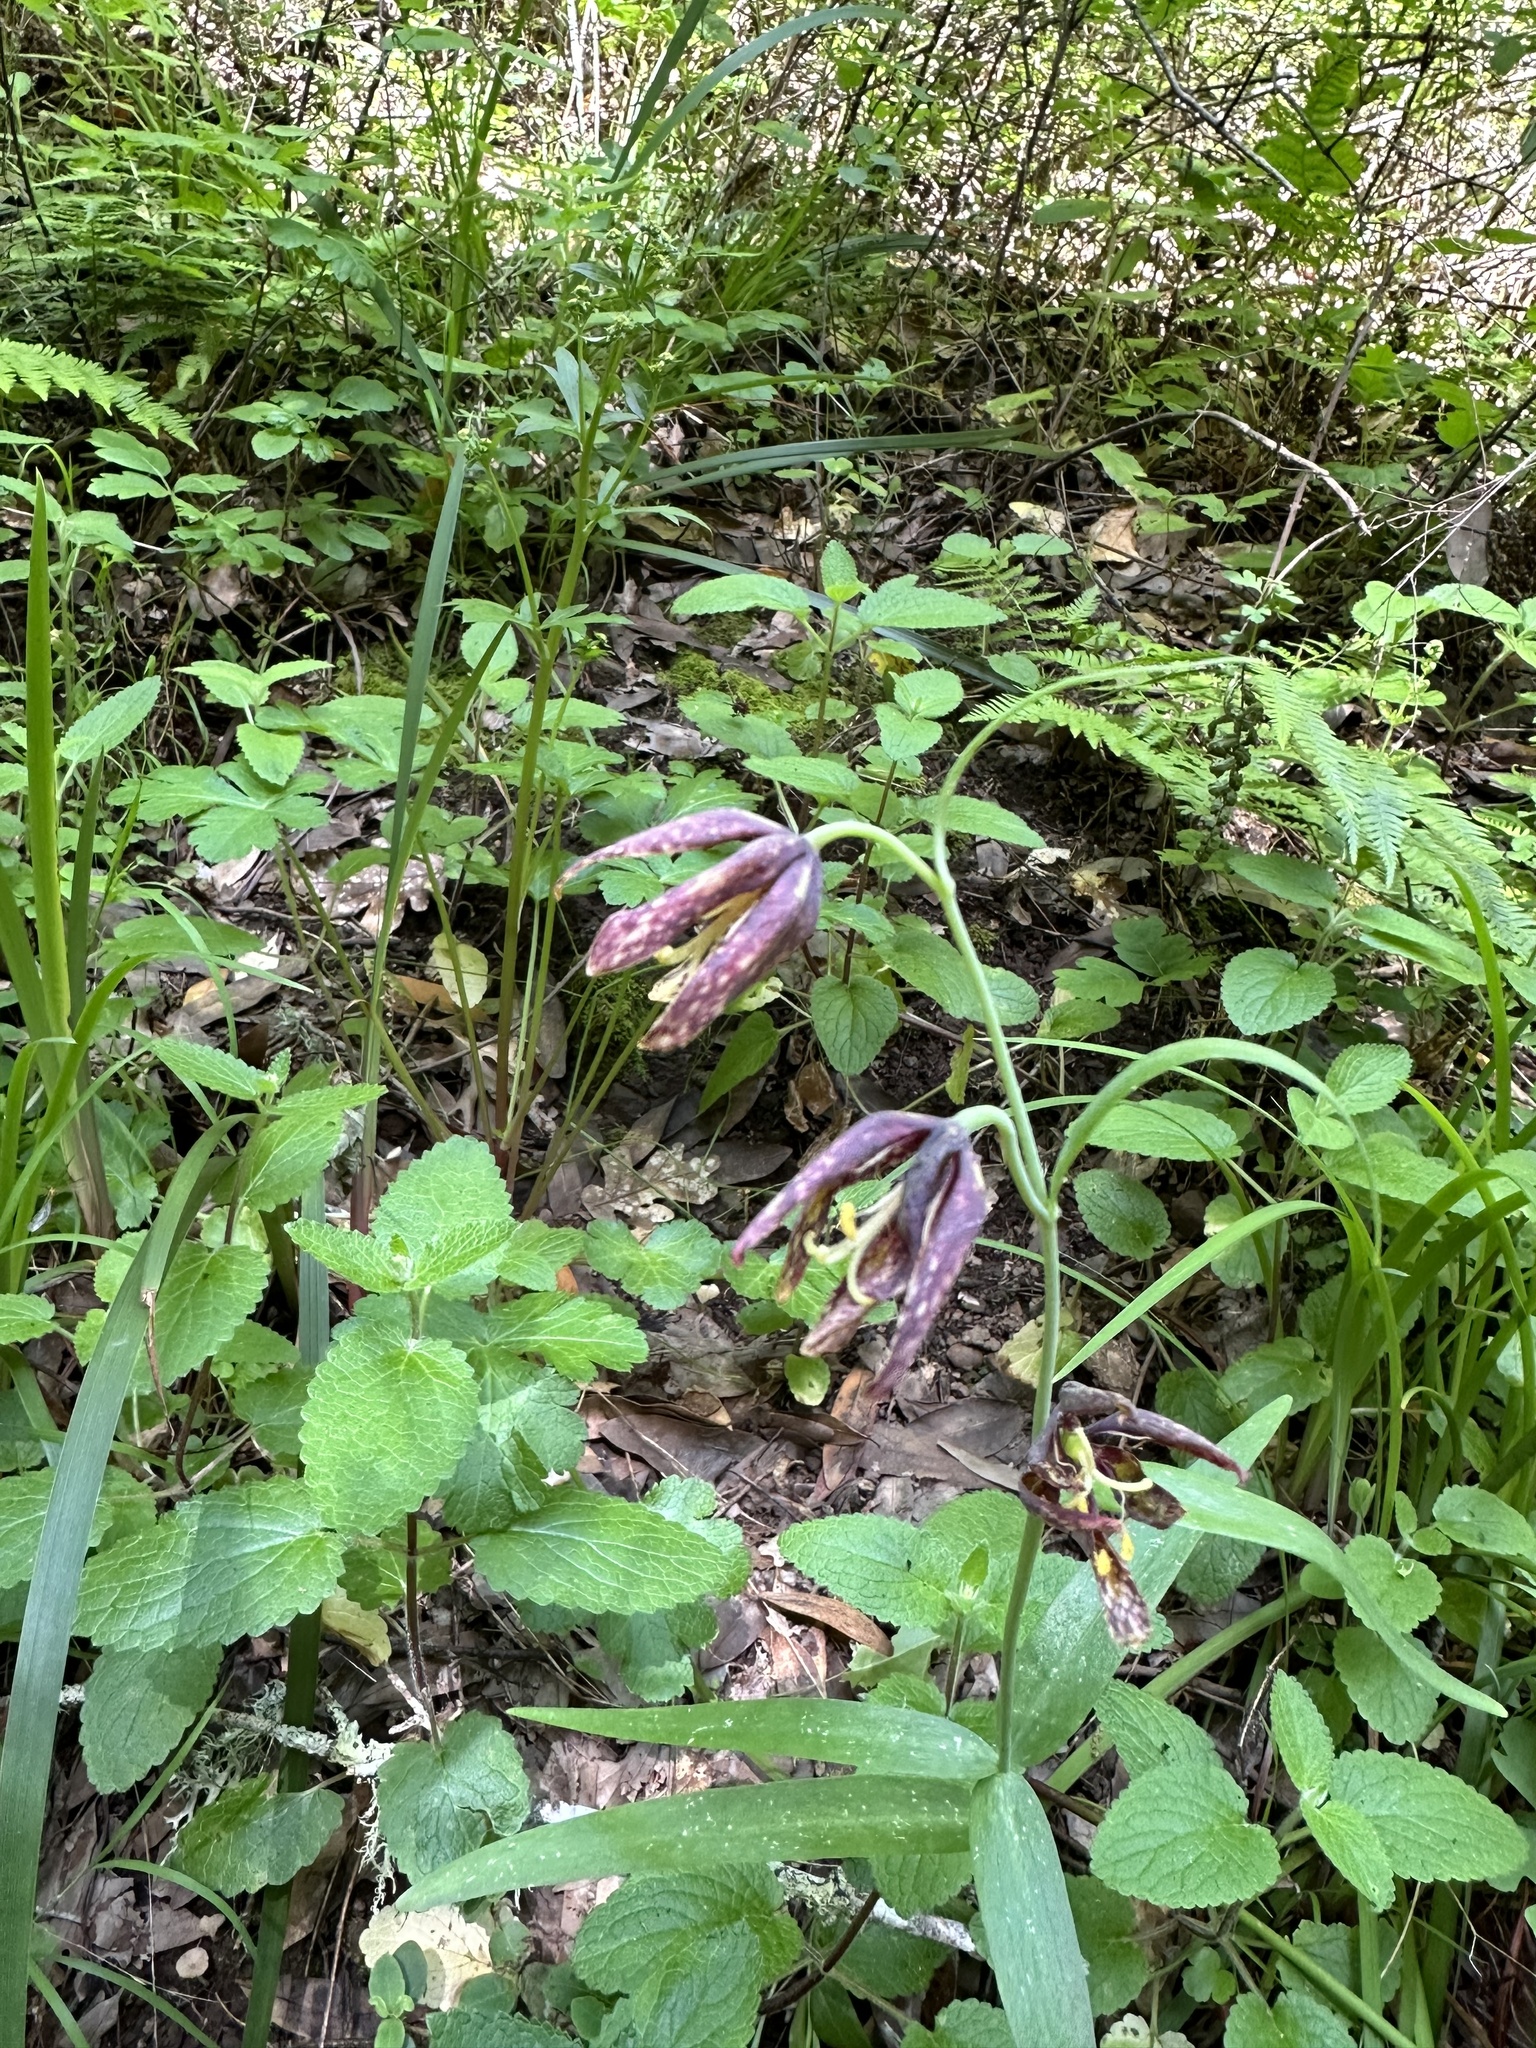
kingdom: Plantae
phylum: Tracheophyta
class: Liliopsida
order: Liliales
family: Liliaceae
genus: Fritillaria
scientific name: Fritillaria affinis
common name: Ojai fritillary
